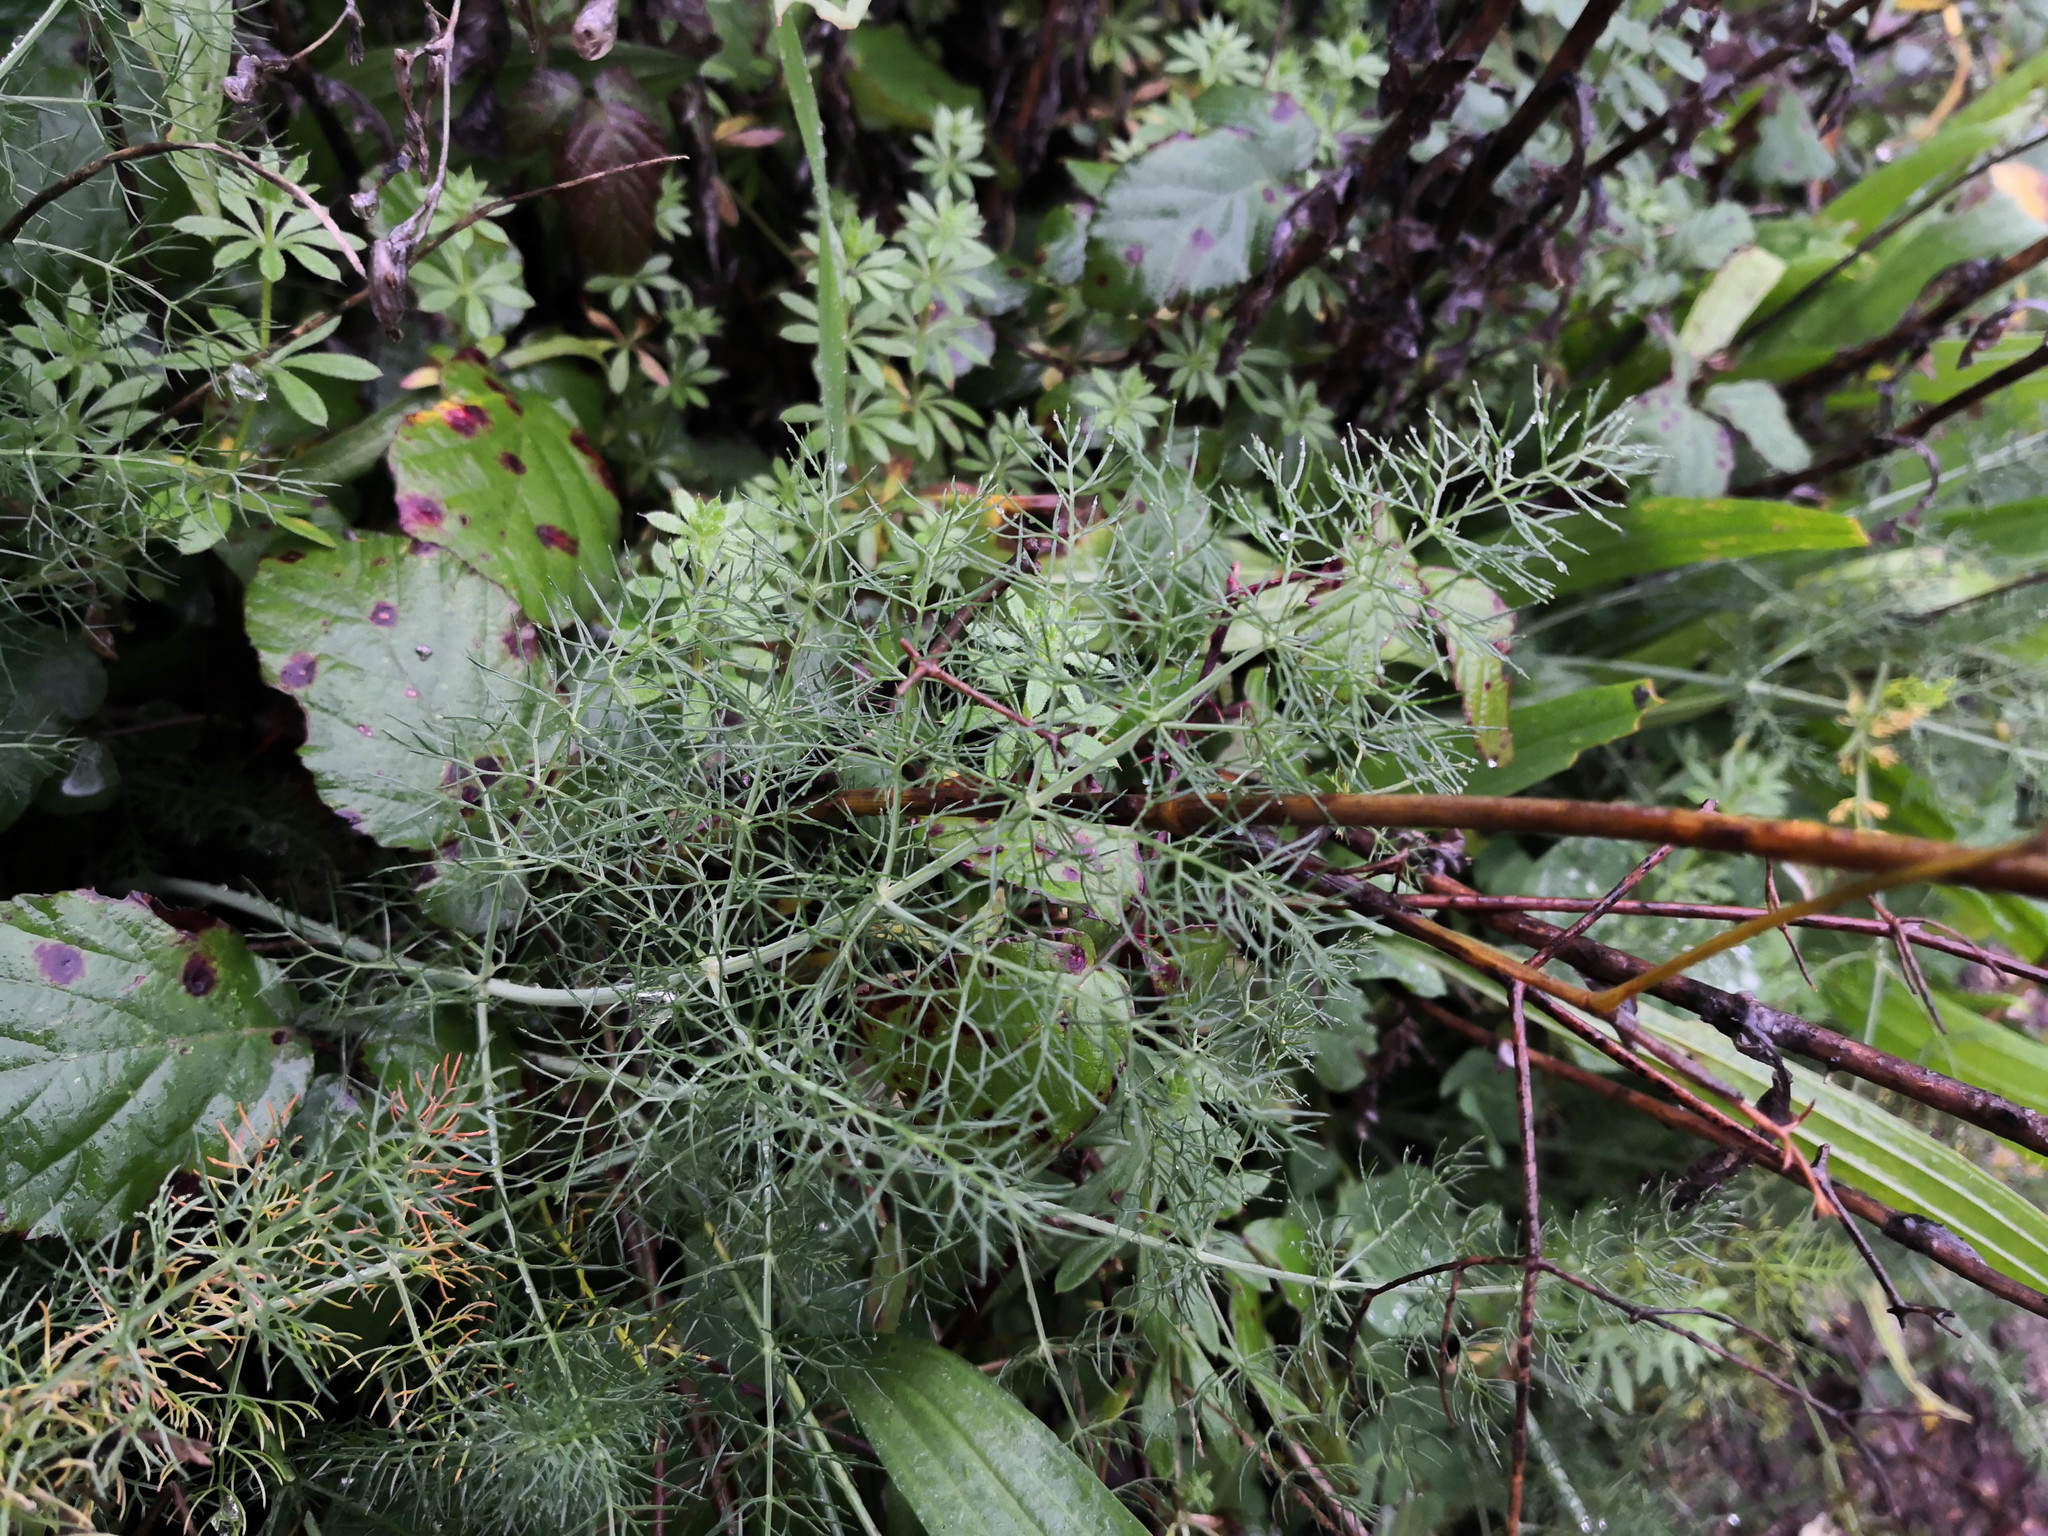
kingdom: Plantae
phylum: Tracheophyta
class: Magnoliopsida
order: Apiales
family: Apiaceae
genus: Foeniculum
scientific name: Foeniculum vulgare
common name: Fennel
